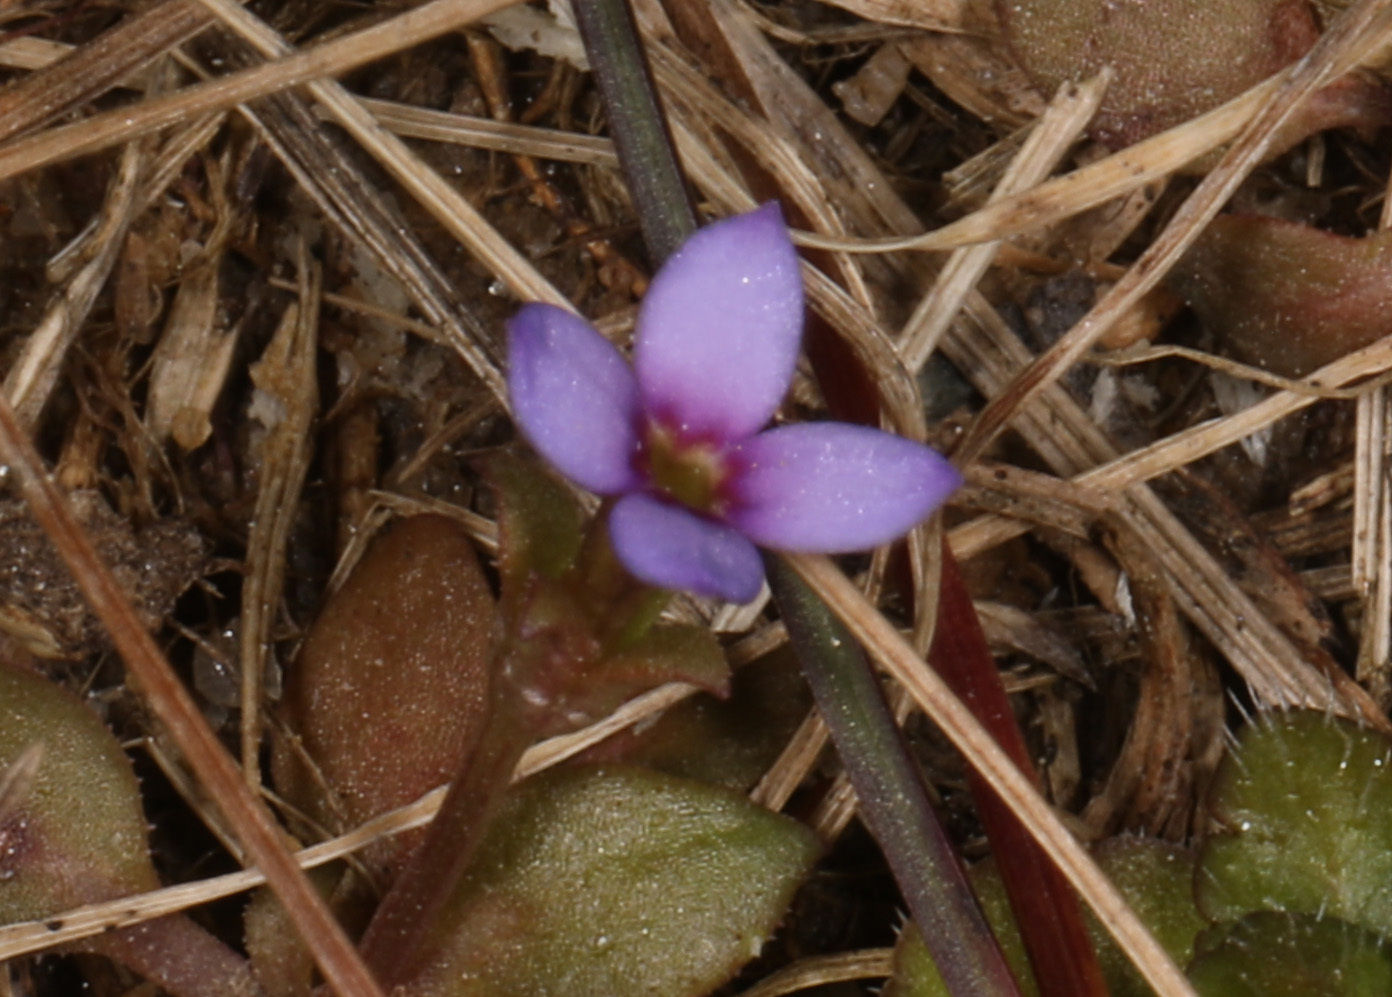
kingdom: Plantae
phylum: Tracheophyta
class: Magnoliopsida
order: Gentianales
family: Rubiaceae
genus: Houstonia
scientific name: Houstonia pusilla
